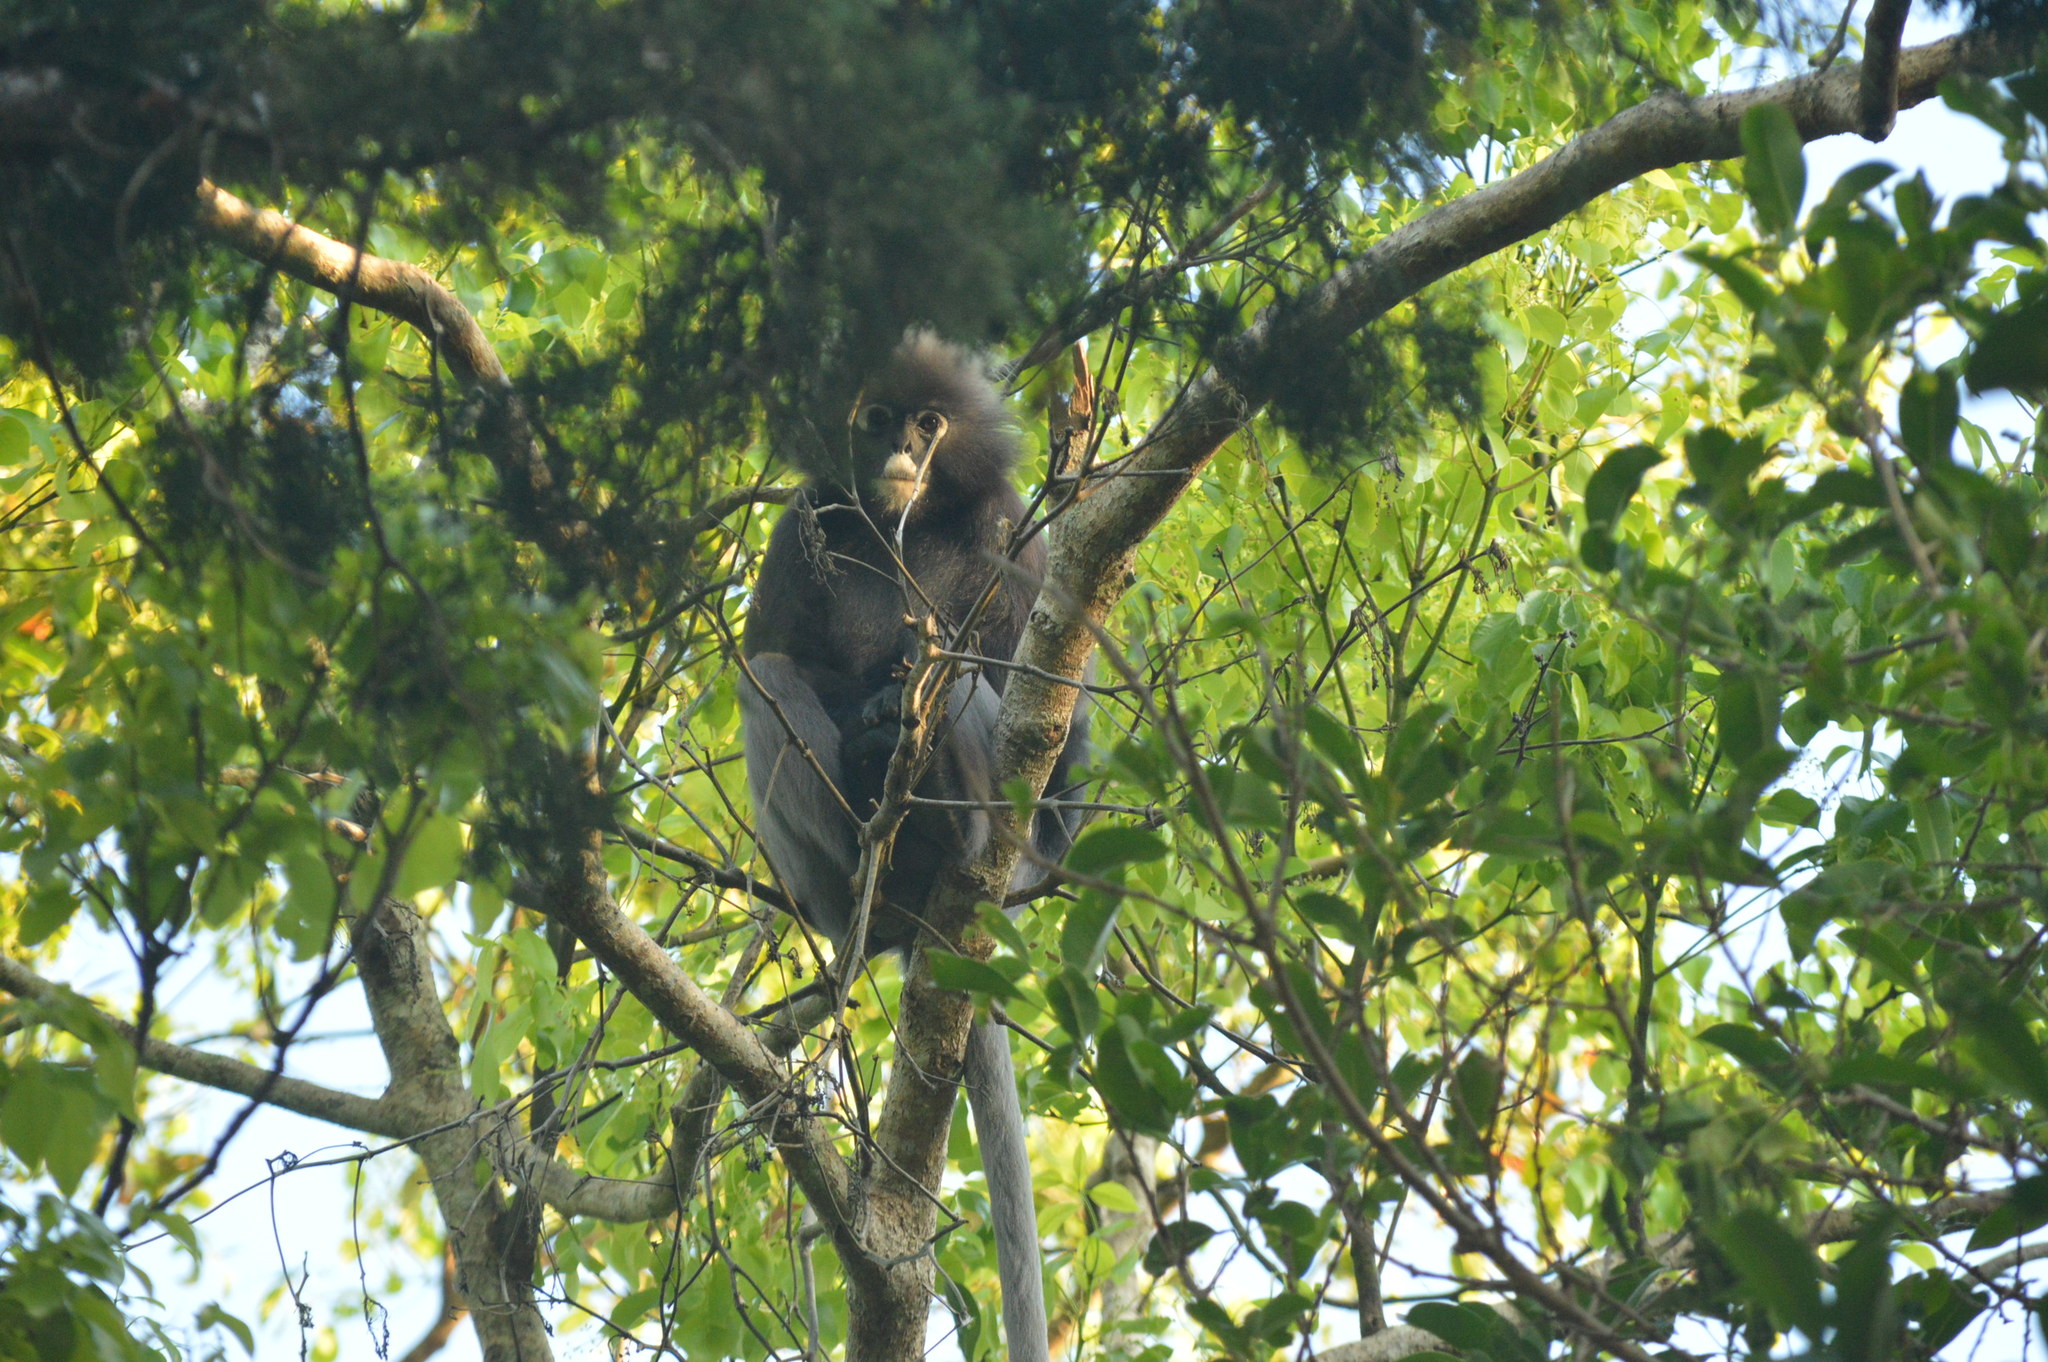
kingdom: Animalia
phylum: Chordata
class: Mammalia
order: Primates
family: Cercopithecidae
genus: Trachypithecus
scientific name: Trachypithecus obscurus
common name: Dusky leaf-monkey
